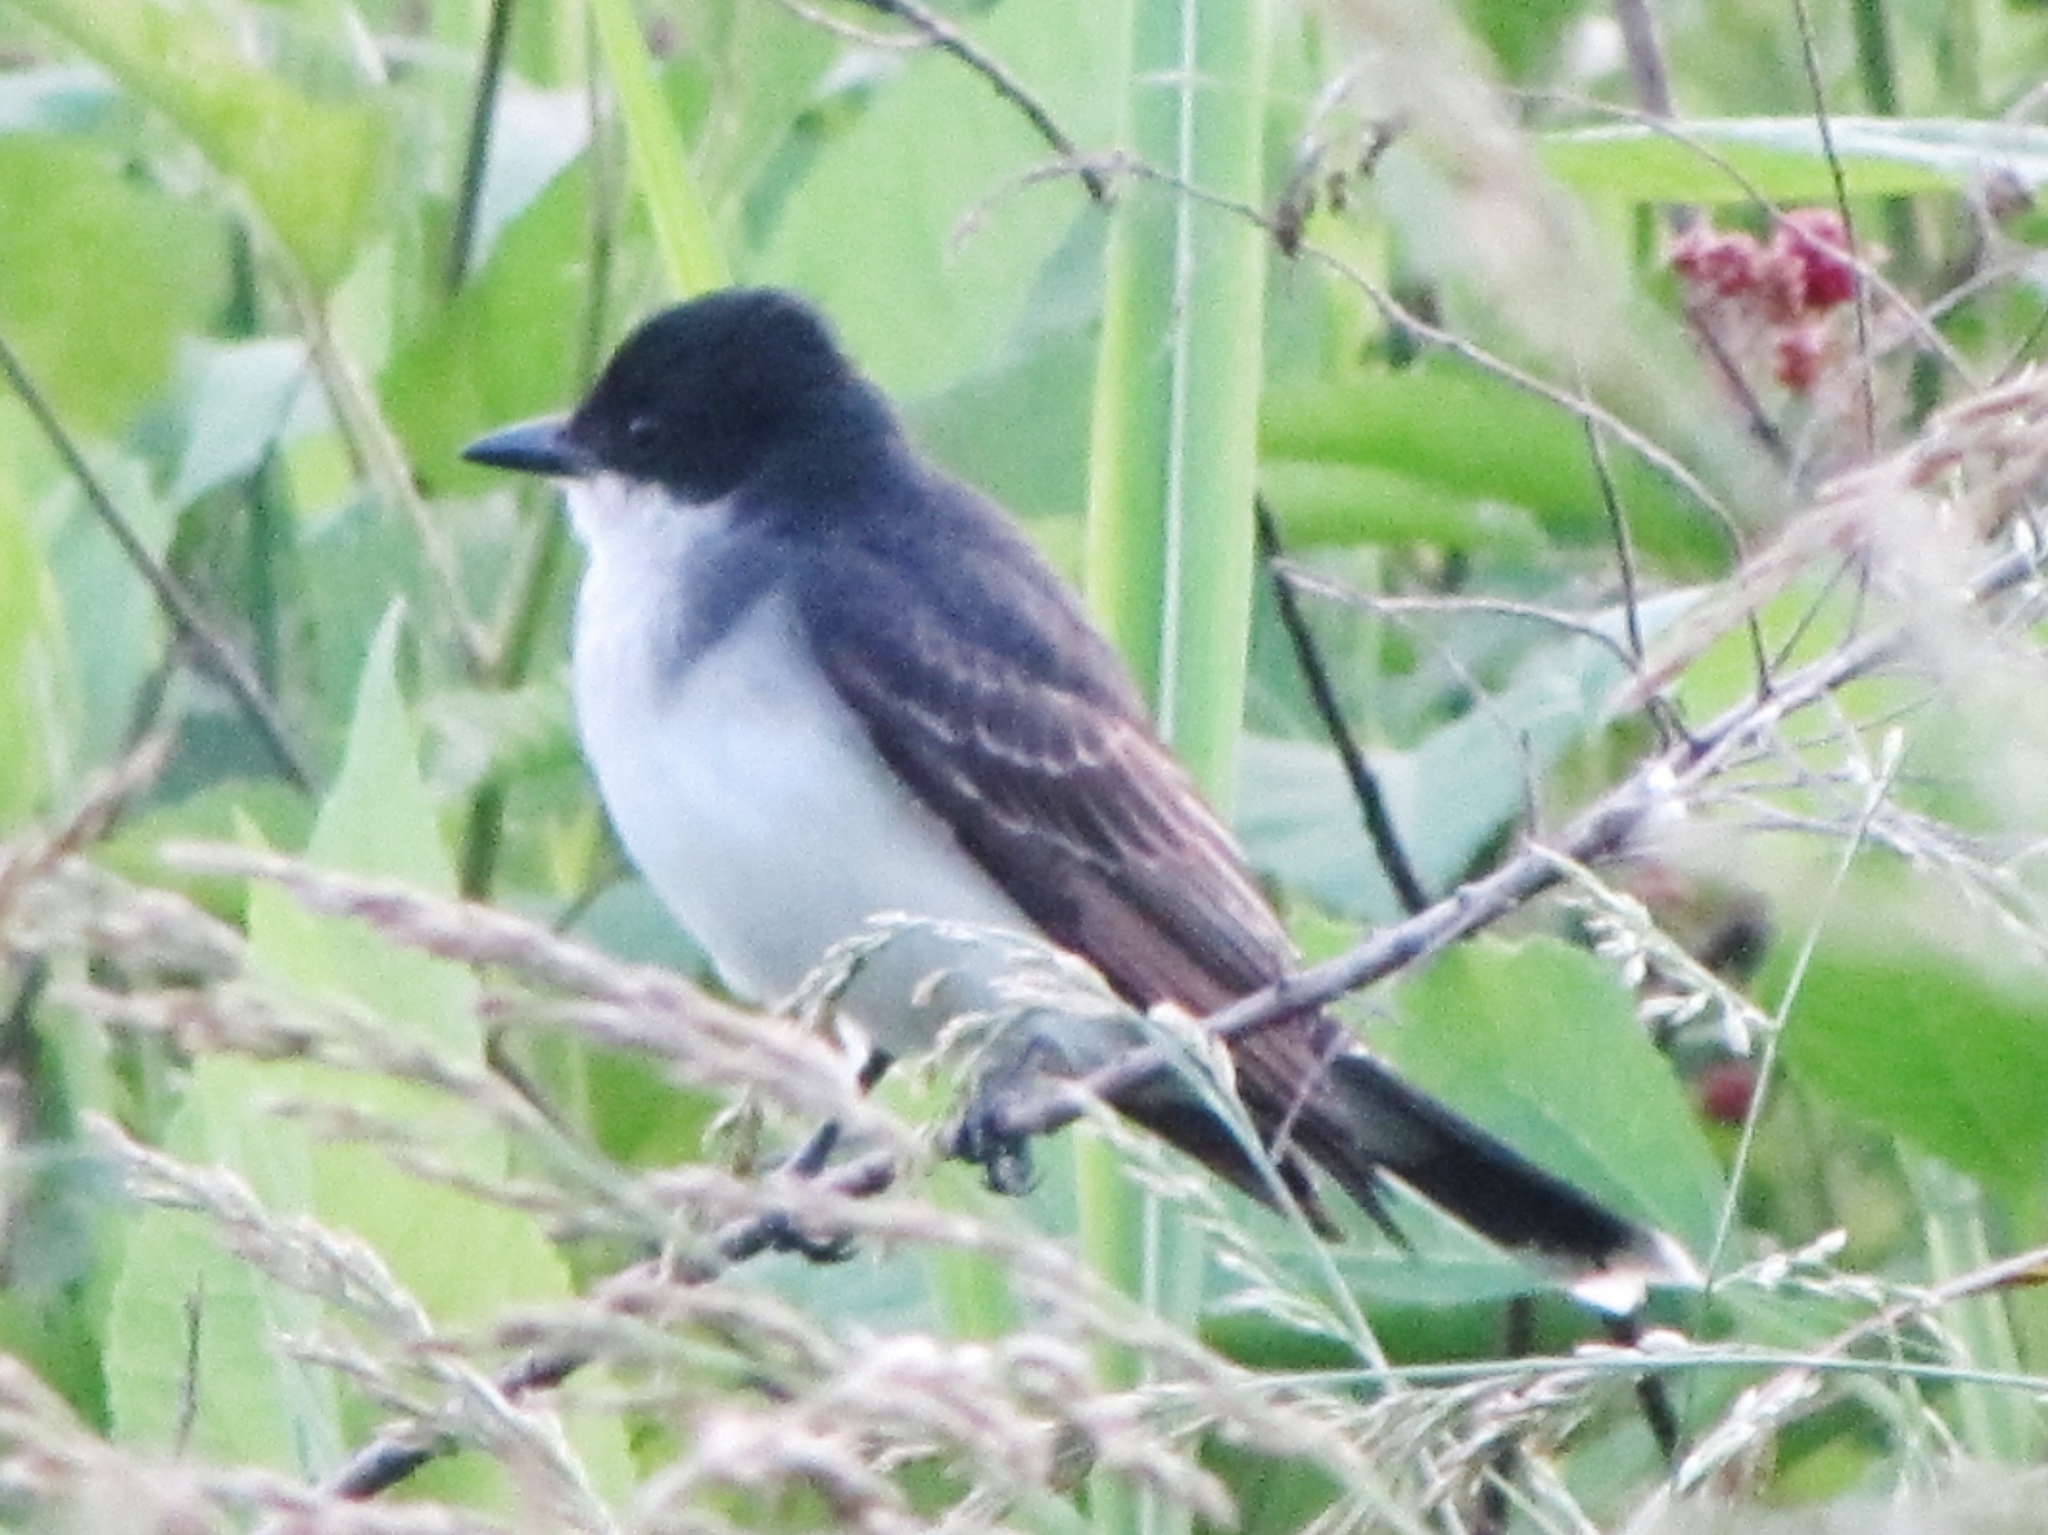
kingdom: Animalia
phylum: Chordata
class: Aves
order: Passeriformes
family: Tyrannidae
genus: Tyrannus
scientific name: Tyrannus tyrannus
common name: Eastern kingbird
